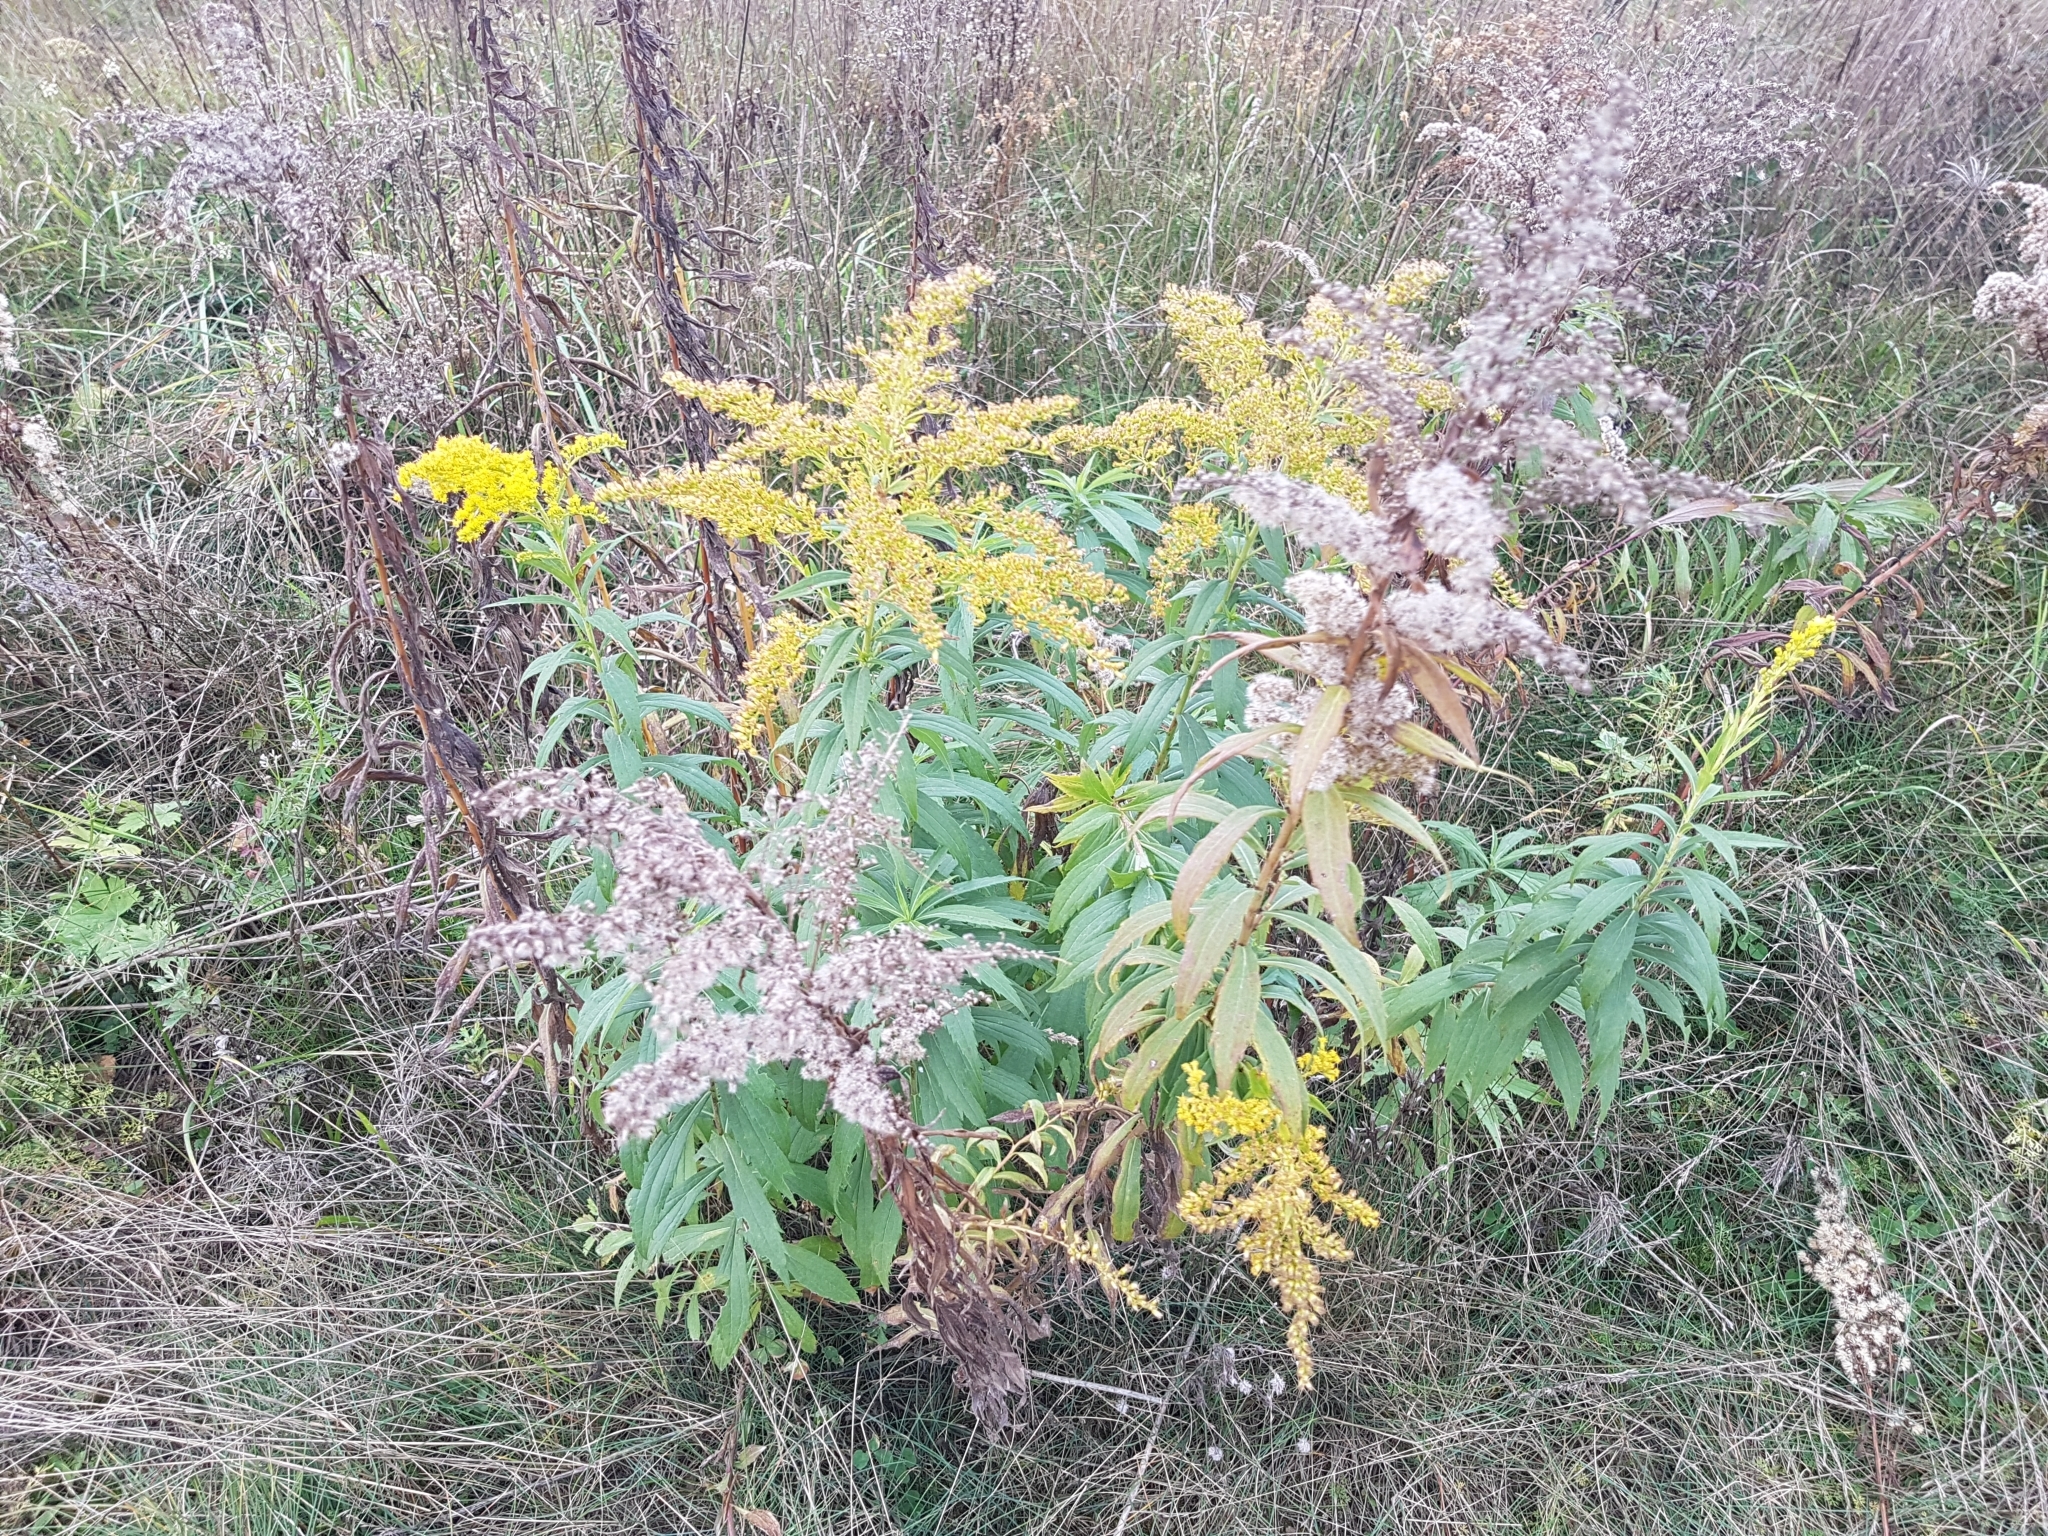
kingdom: Plantae
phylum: Tracheophyta
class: Magnoliopsida
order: Asterales
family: Asteraceae
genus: Solidago
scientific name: Solidago canadensis
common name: Canada goldenrod
